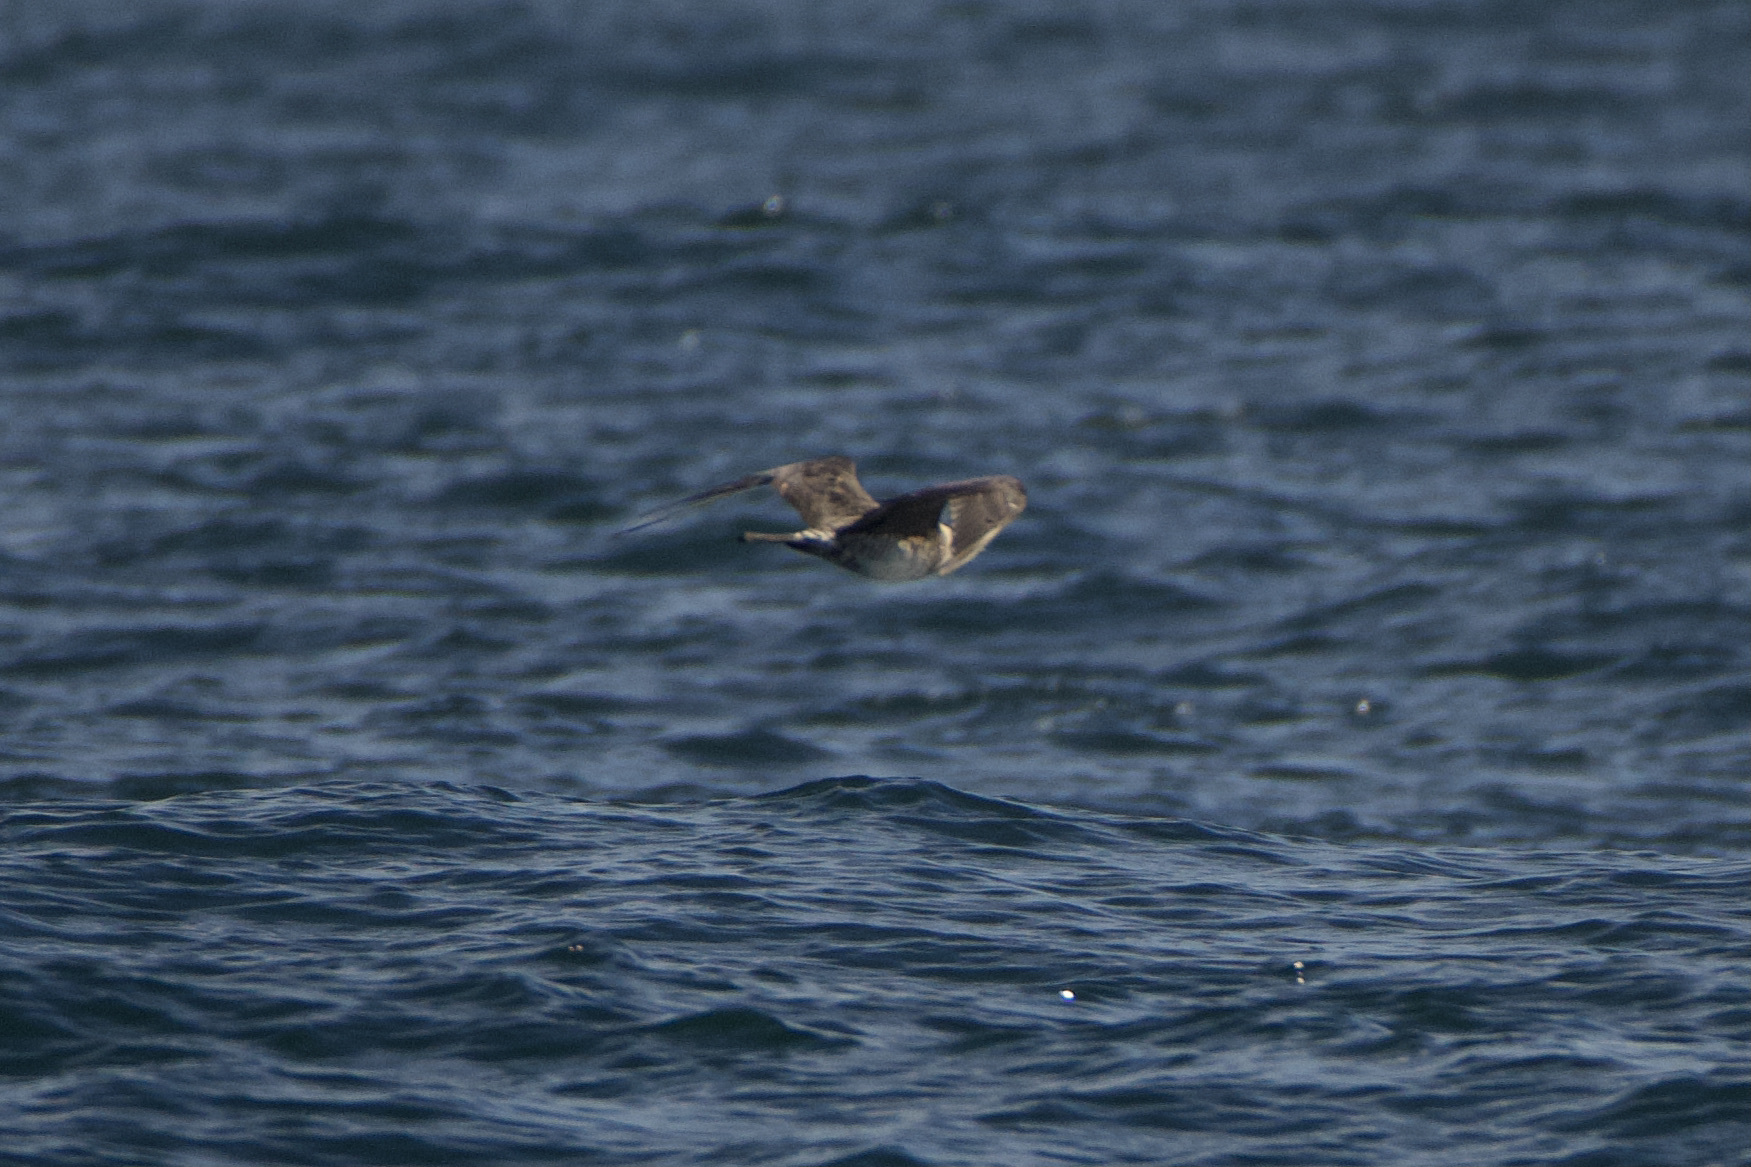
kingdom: Animalia
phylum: Chordata
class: Aves
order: Charadriiformes
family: Stercorariidae
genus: Stercorarius
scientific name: Stercorarius pomarinus
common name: Pomarine jaeger
